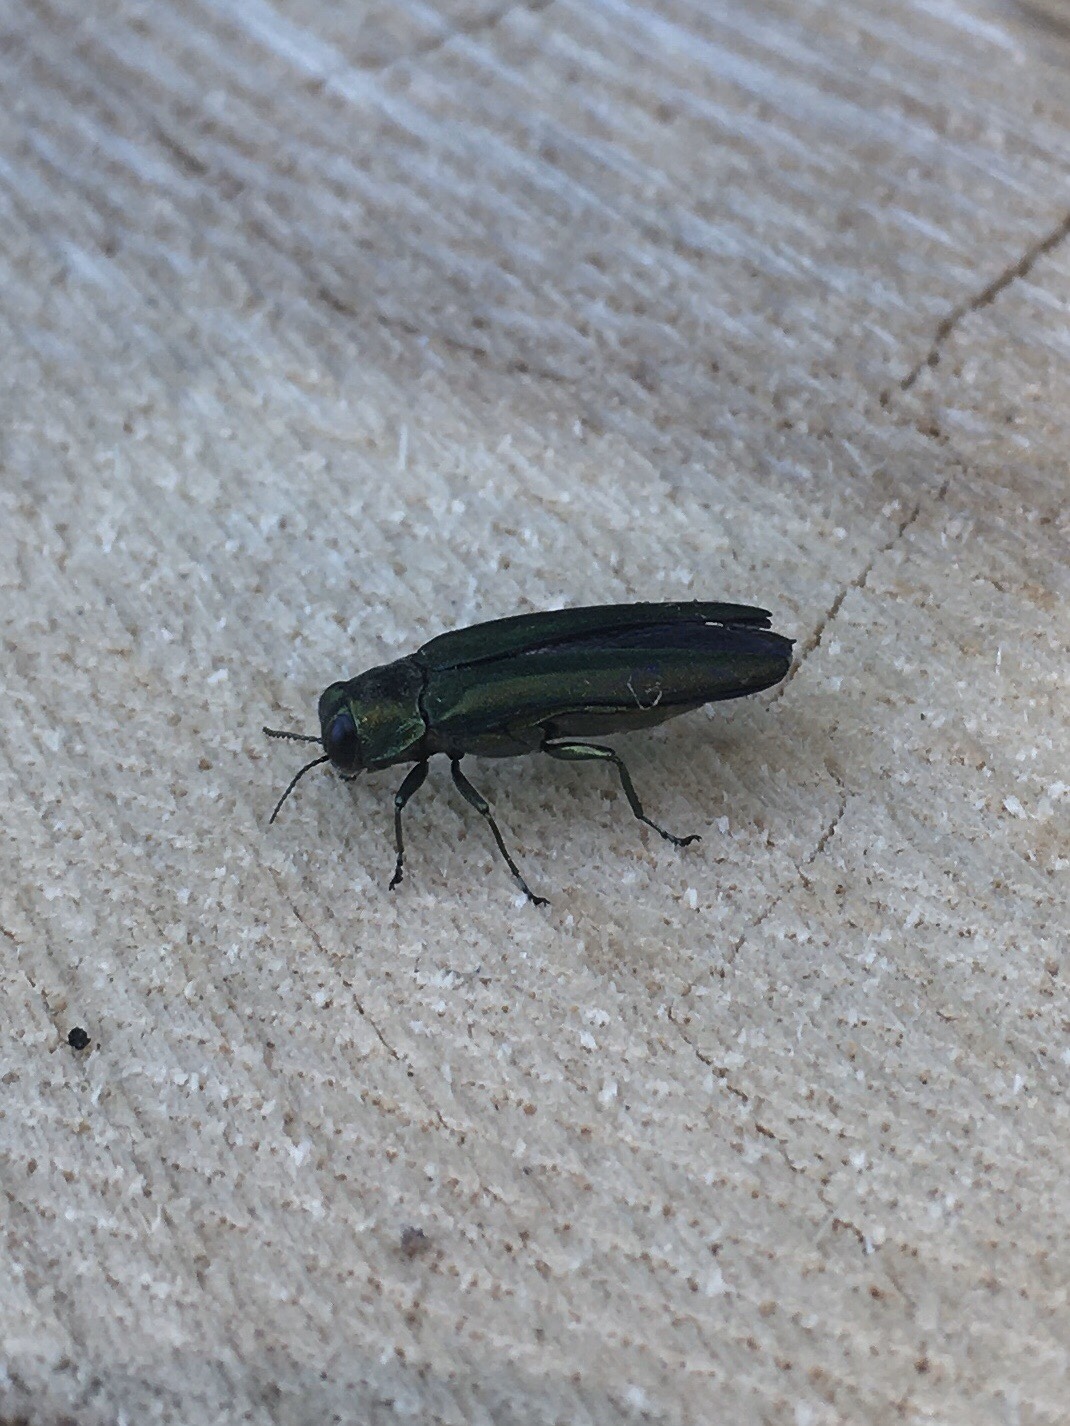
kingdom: Animalia
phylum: Arthropoda
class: Insecta
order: Coleoptera
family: Buprestidae
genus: Agrilus
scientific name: Agrilus planipennis
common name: Emerald ash borer
